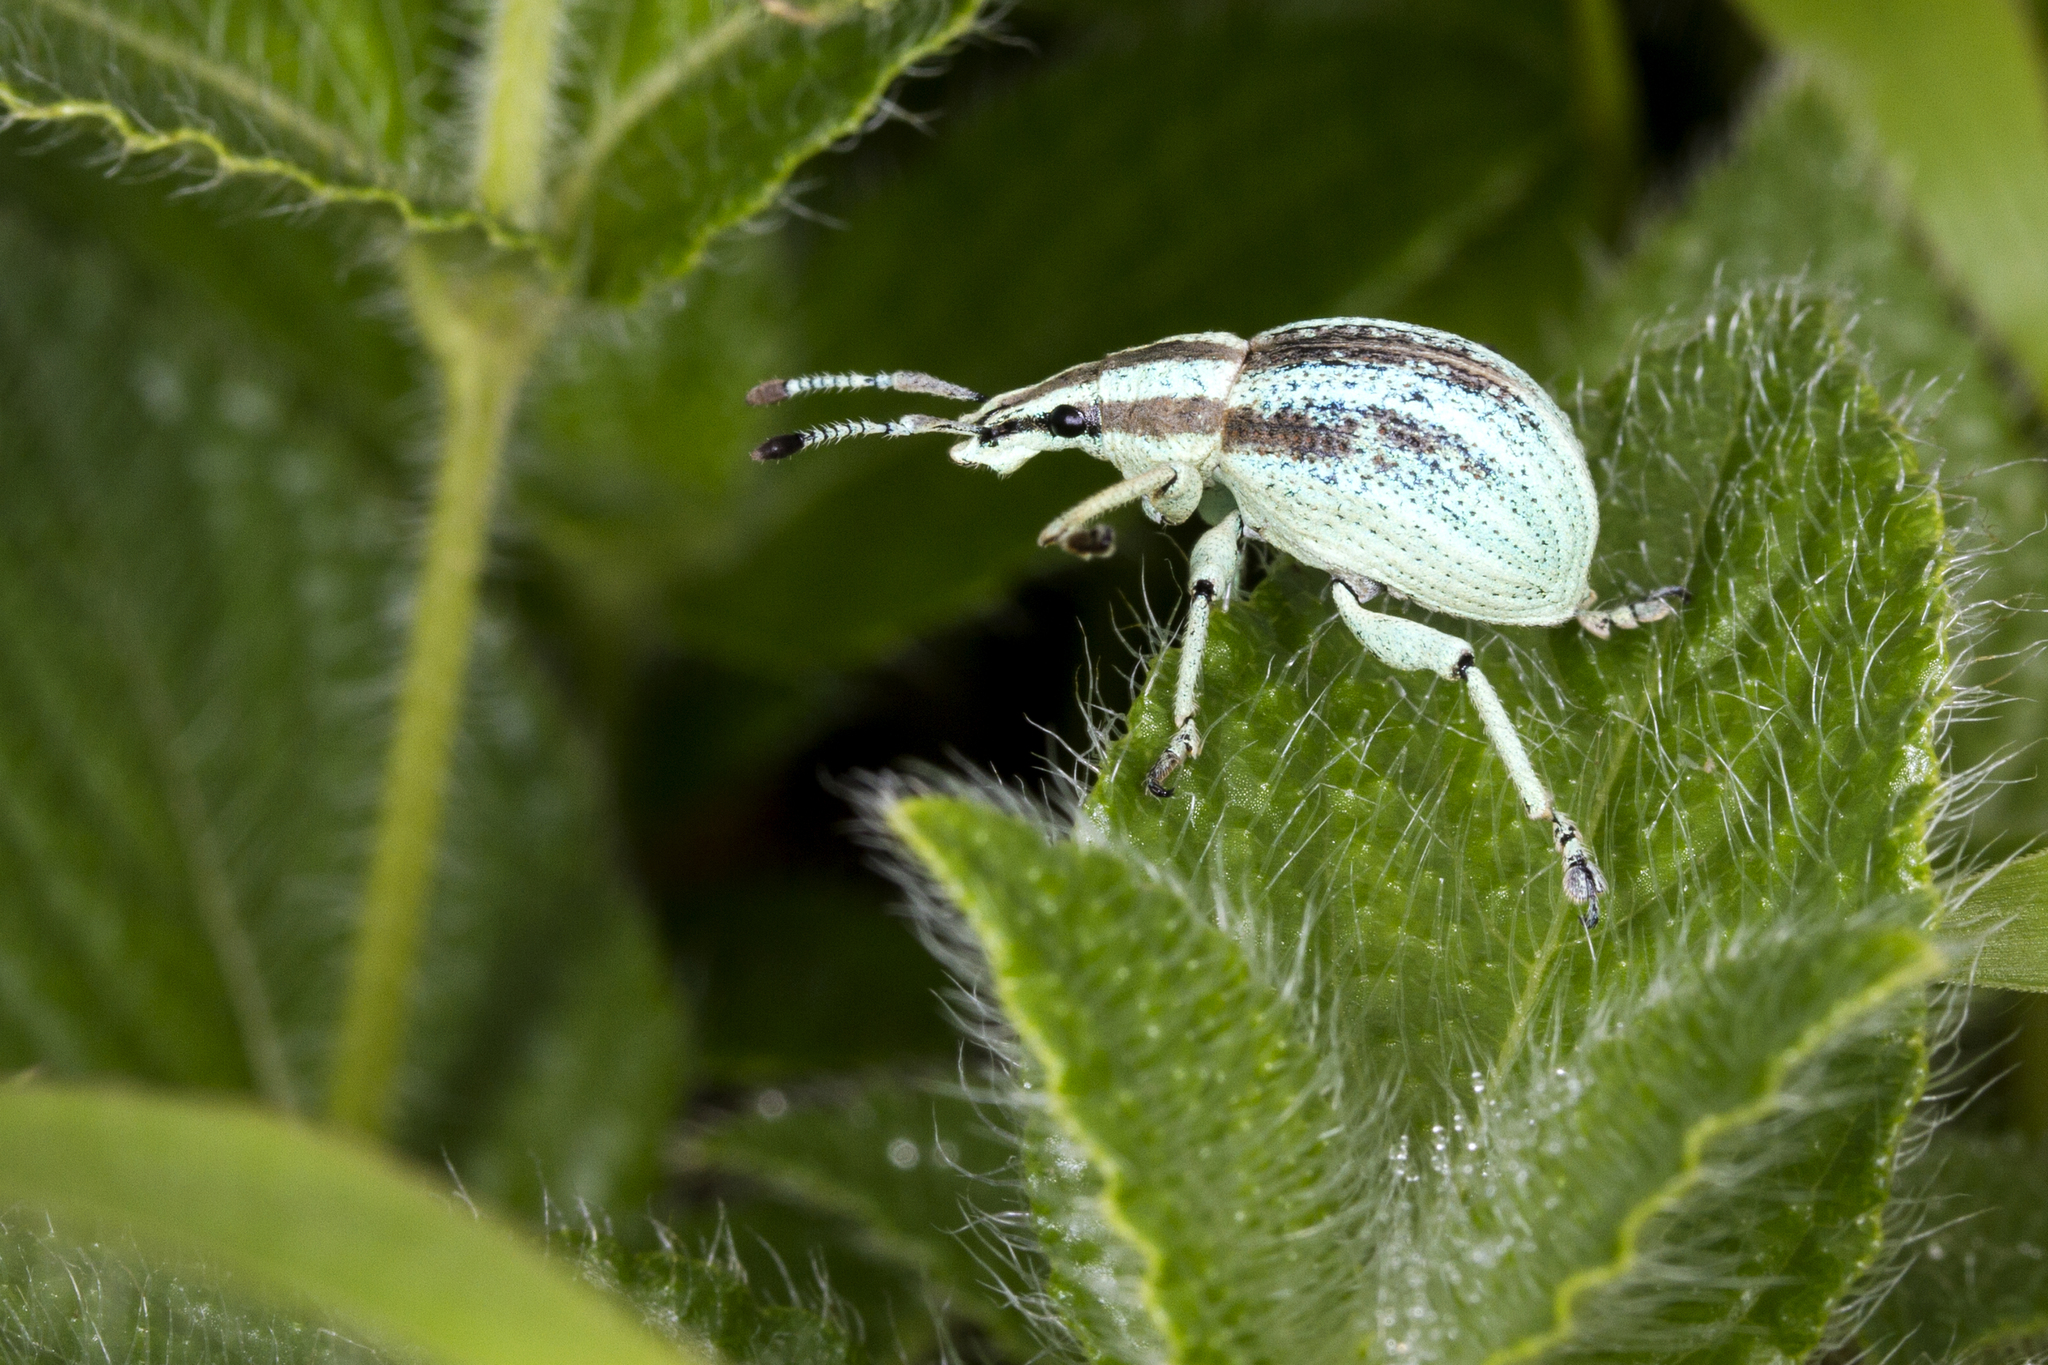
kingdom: Animalia
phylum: Arthropoda
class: Insecta
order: Coleoptera
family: Curculionidae
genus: Parapionus
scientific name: Parapionus varicolor
